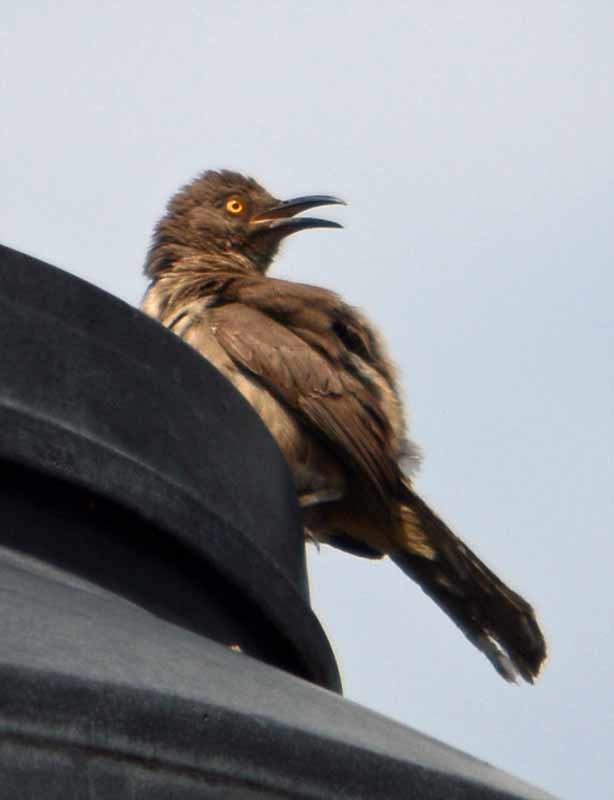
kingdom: Animalia
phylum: Chordata
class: Aves
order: Passeriformes
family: Mimidae
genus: Toxostoma
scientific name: Toxostoma curvirostre
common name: Curve-billed thrasher
